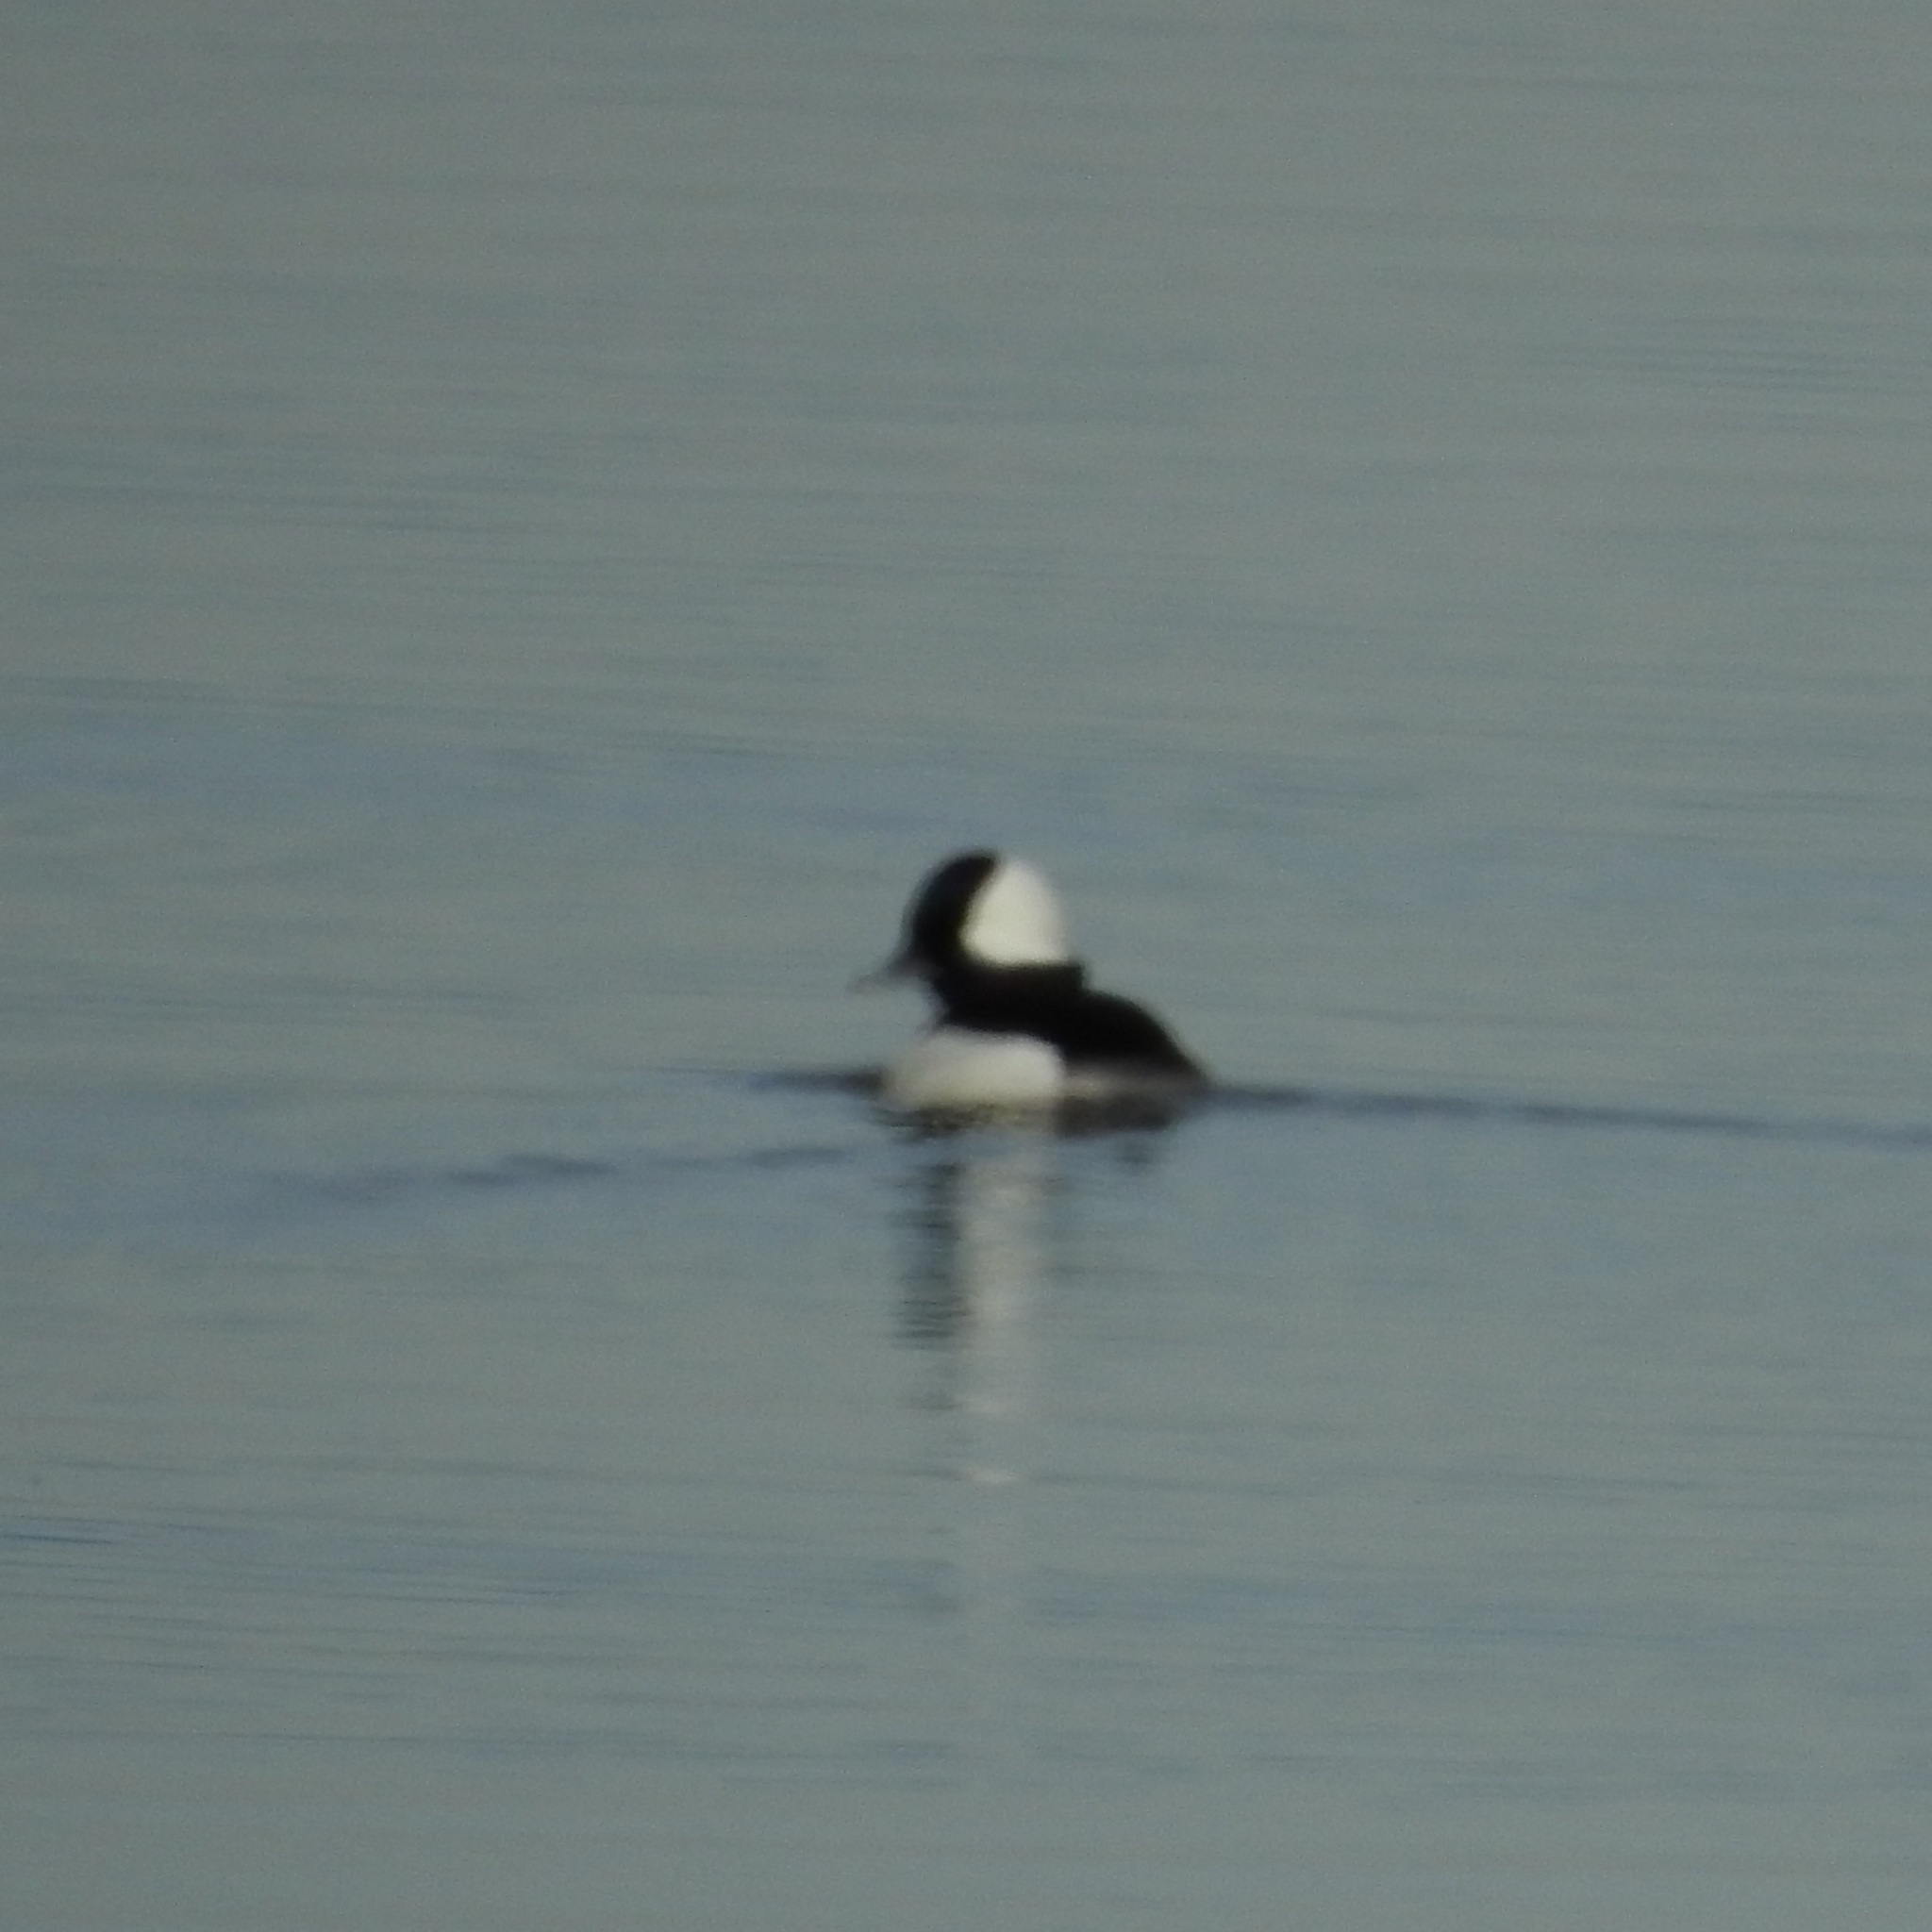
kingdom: Animalia
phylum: Chordata
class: Aves
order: Anseriformes
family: Anatidae
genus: Bucephala
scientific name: Bucephala albeola
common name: Bufflehead
